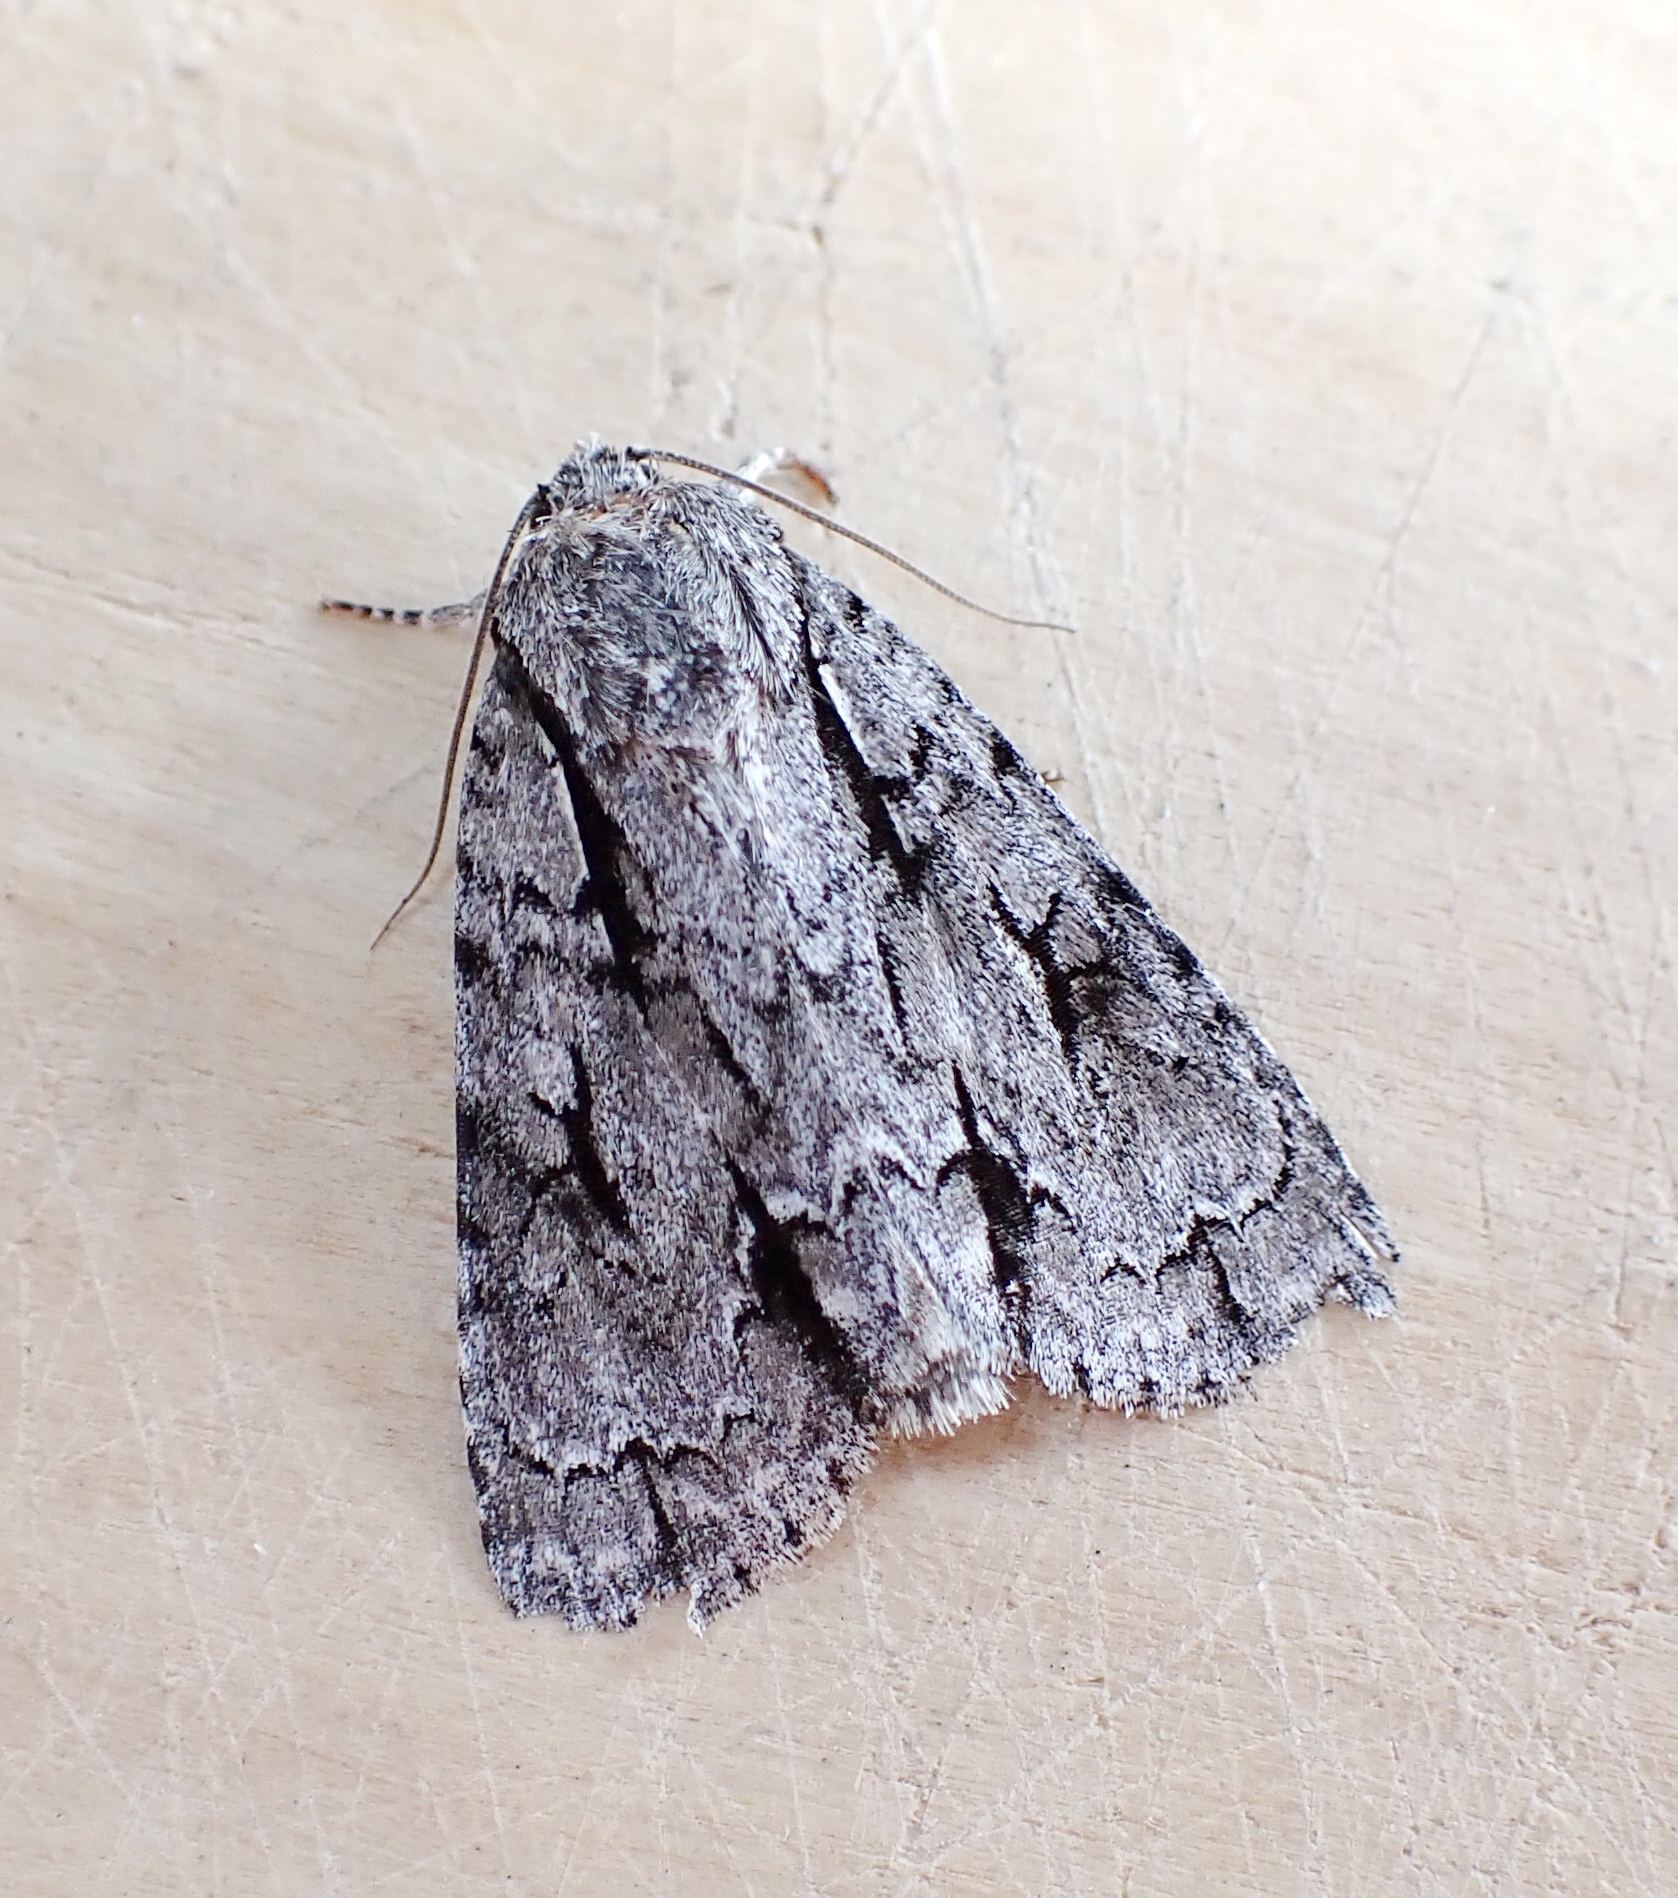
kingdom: Animalia
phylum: Arthropoda
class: Insecta
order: Lepidoptera
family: Noctuidae
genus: Acronicta
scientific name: Acronicta hasta
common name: Cherry dagger
